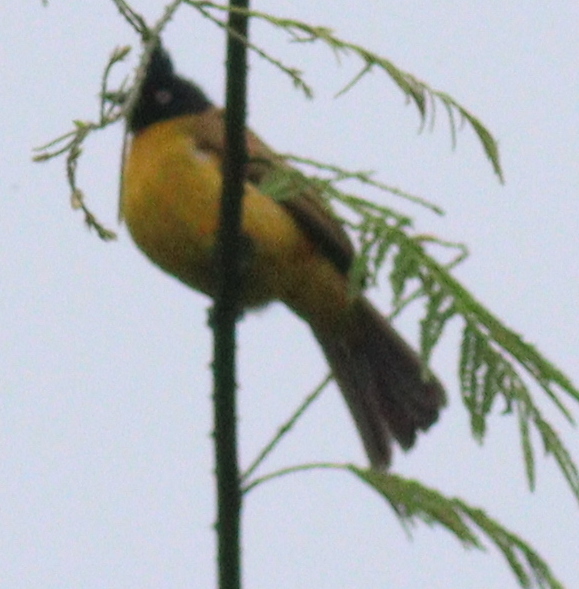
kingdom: Animalia
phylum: Chordata
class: Aves
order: Passeriformes
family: Pycnonotidae
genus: Pycnonotus
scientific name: Pycnonotus flaviventris
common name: Black-crested bulbul
